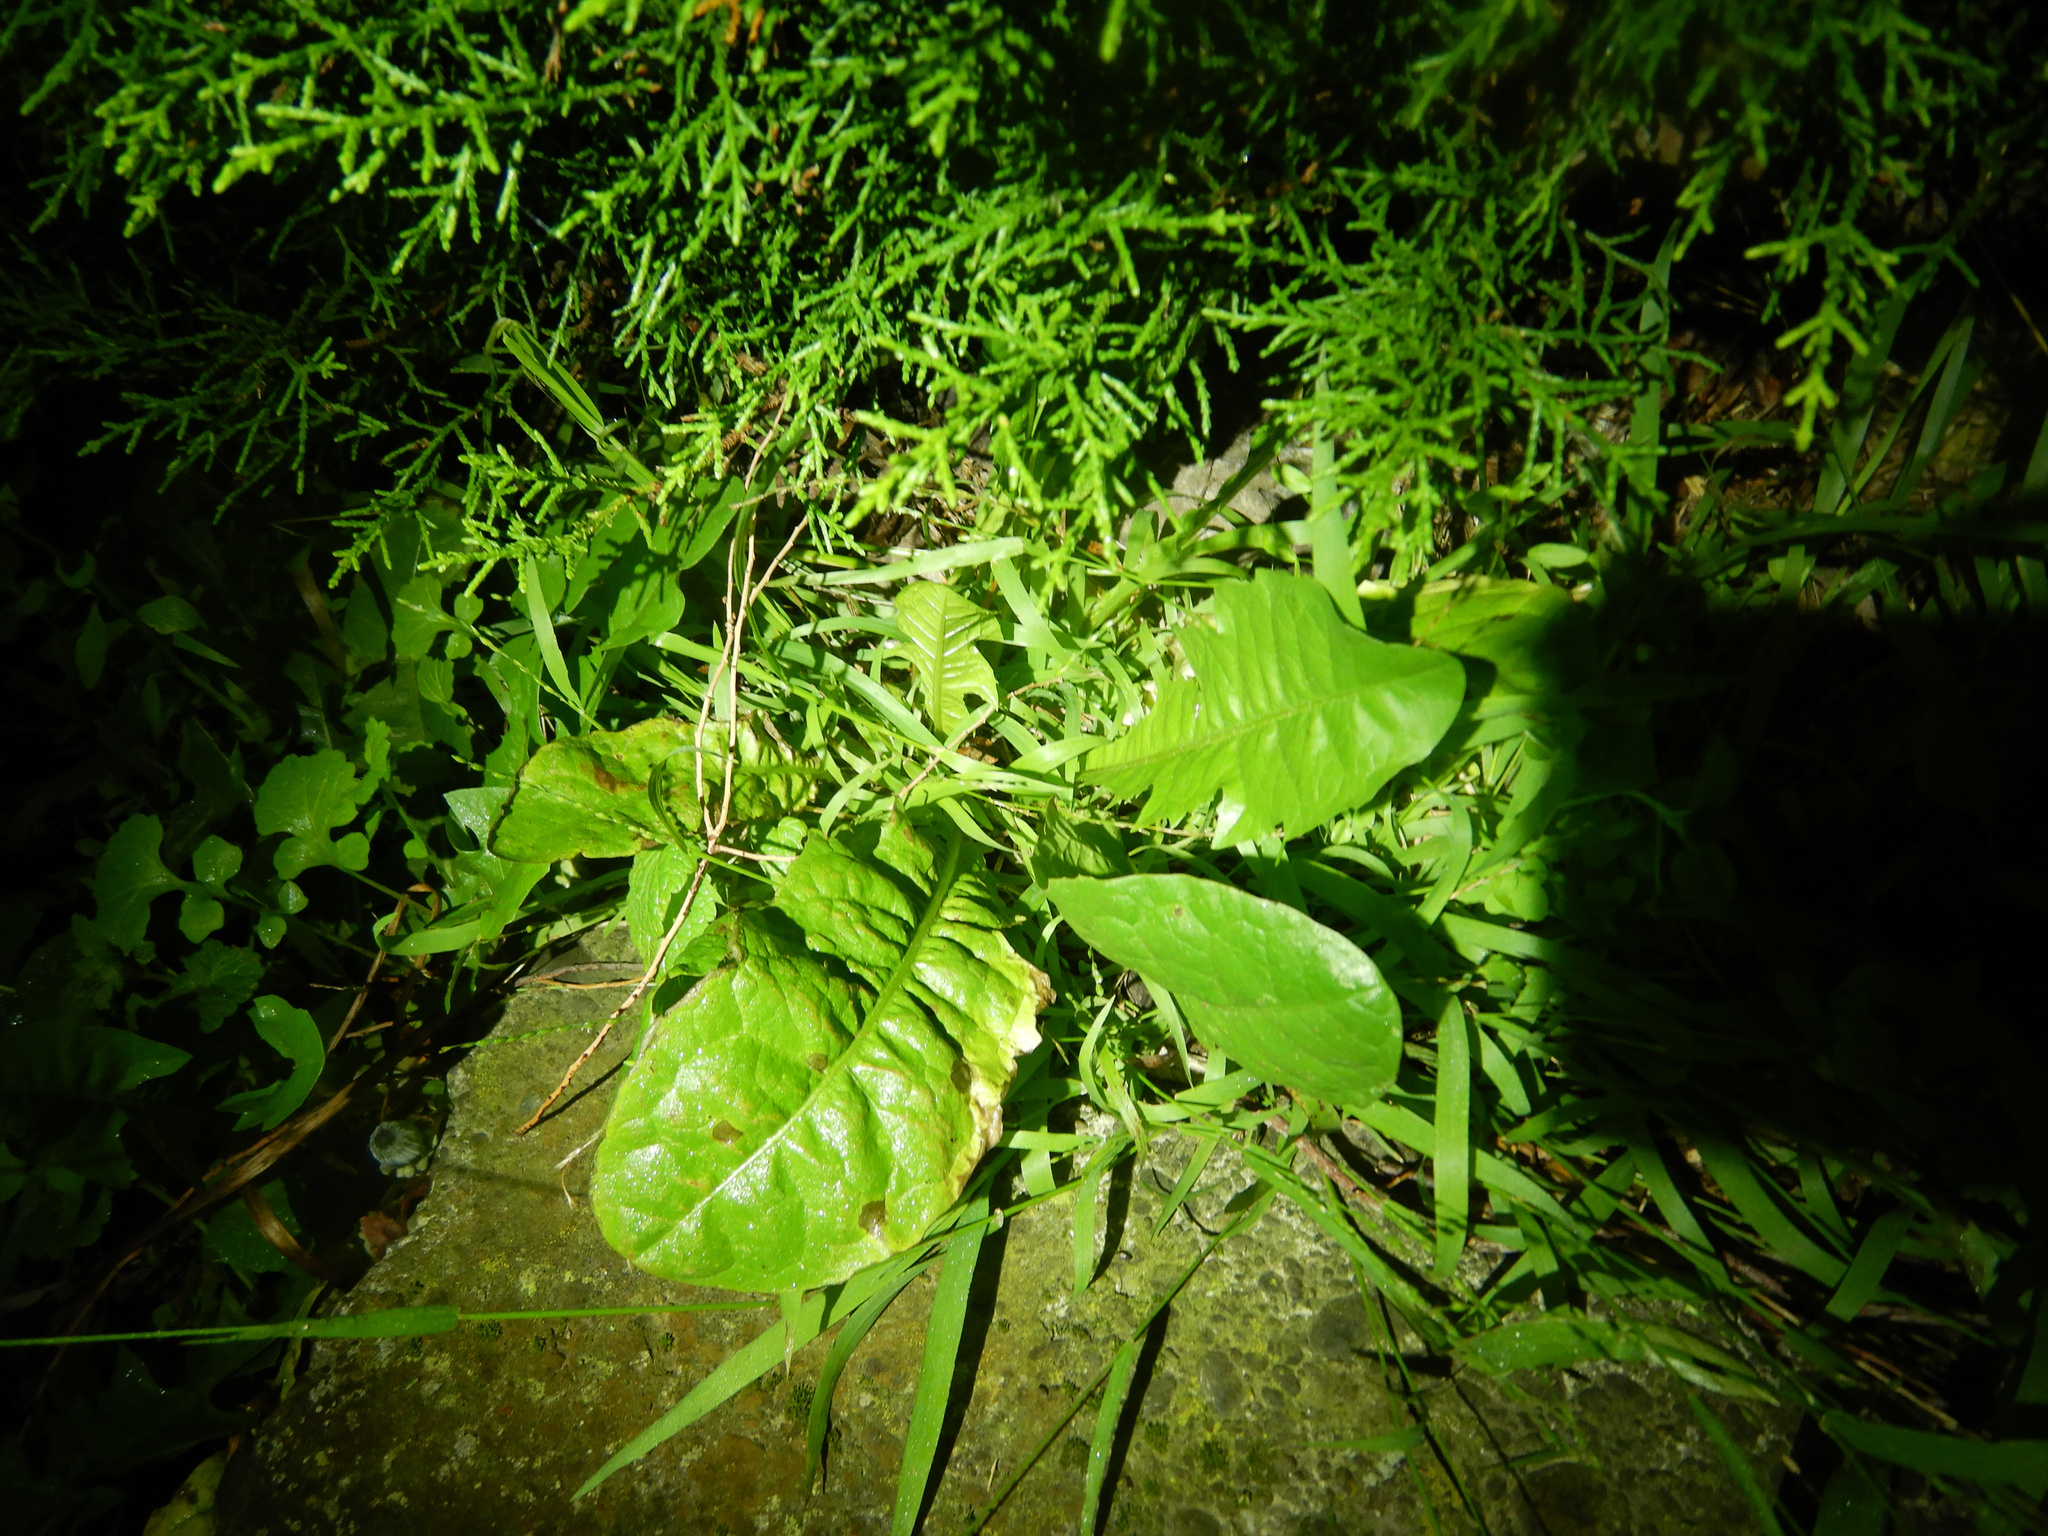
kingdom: Plantae
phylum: Tracheophyta
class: Magnoliopsida
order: Asterales
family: Asteraceae
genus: Taraxacum
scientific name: Taraxacum officinale
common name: Common dandelion
